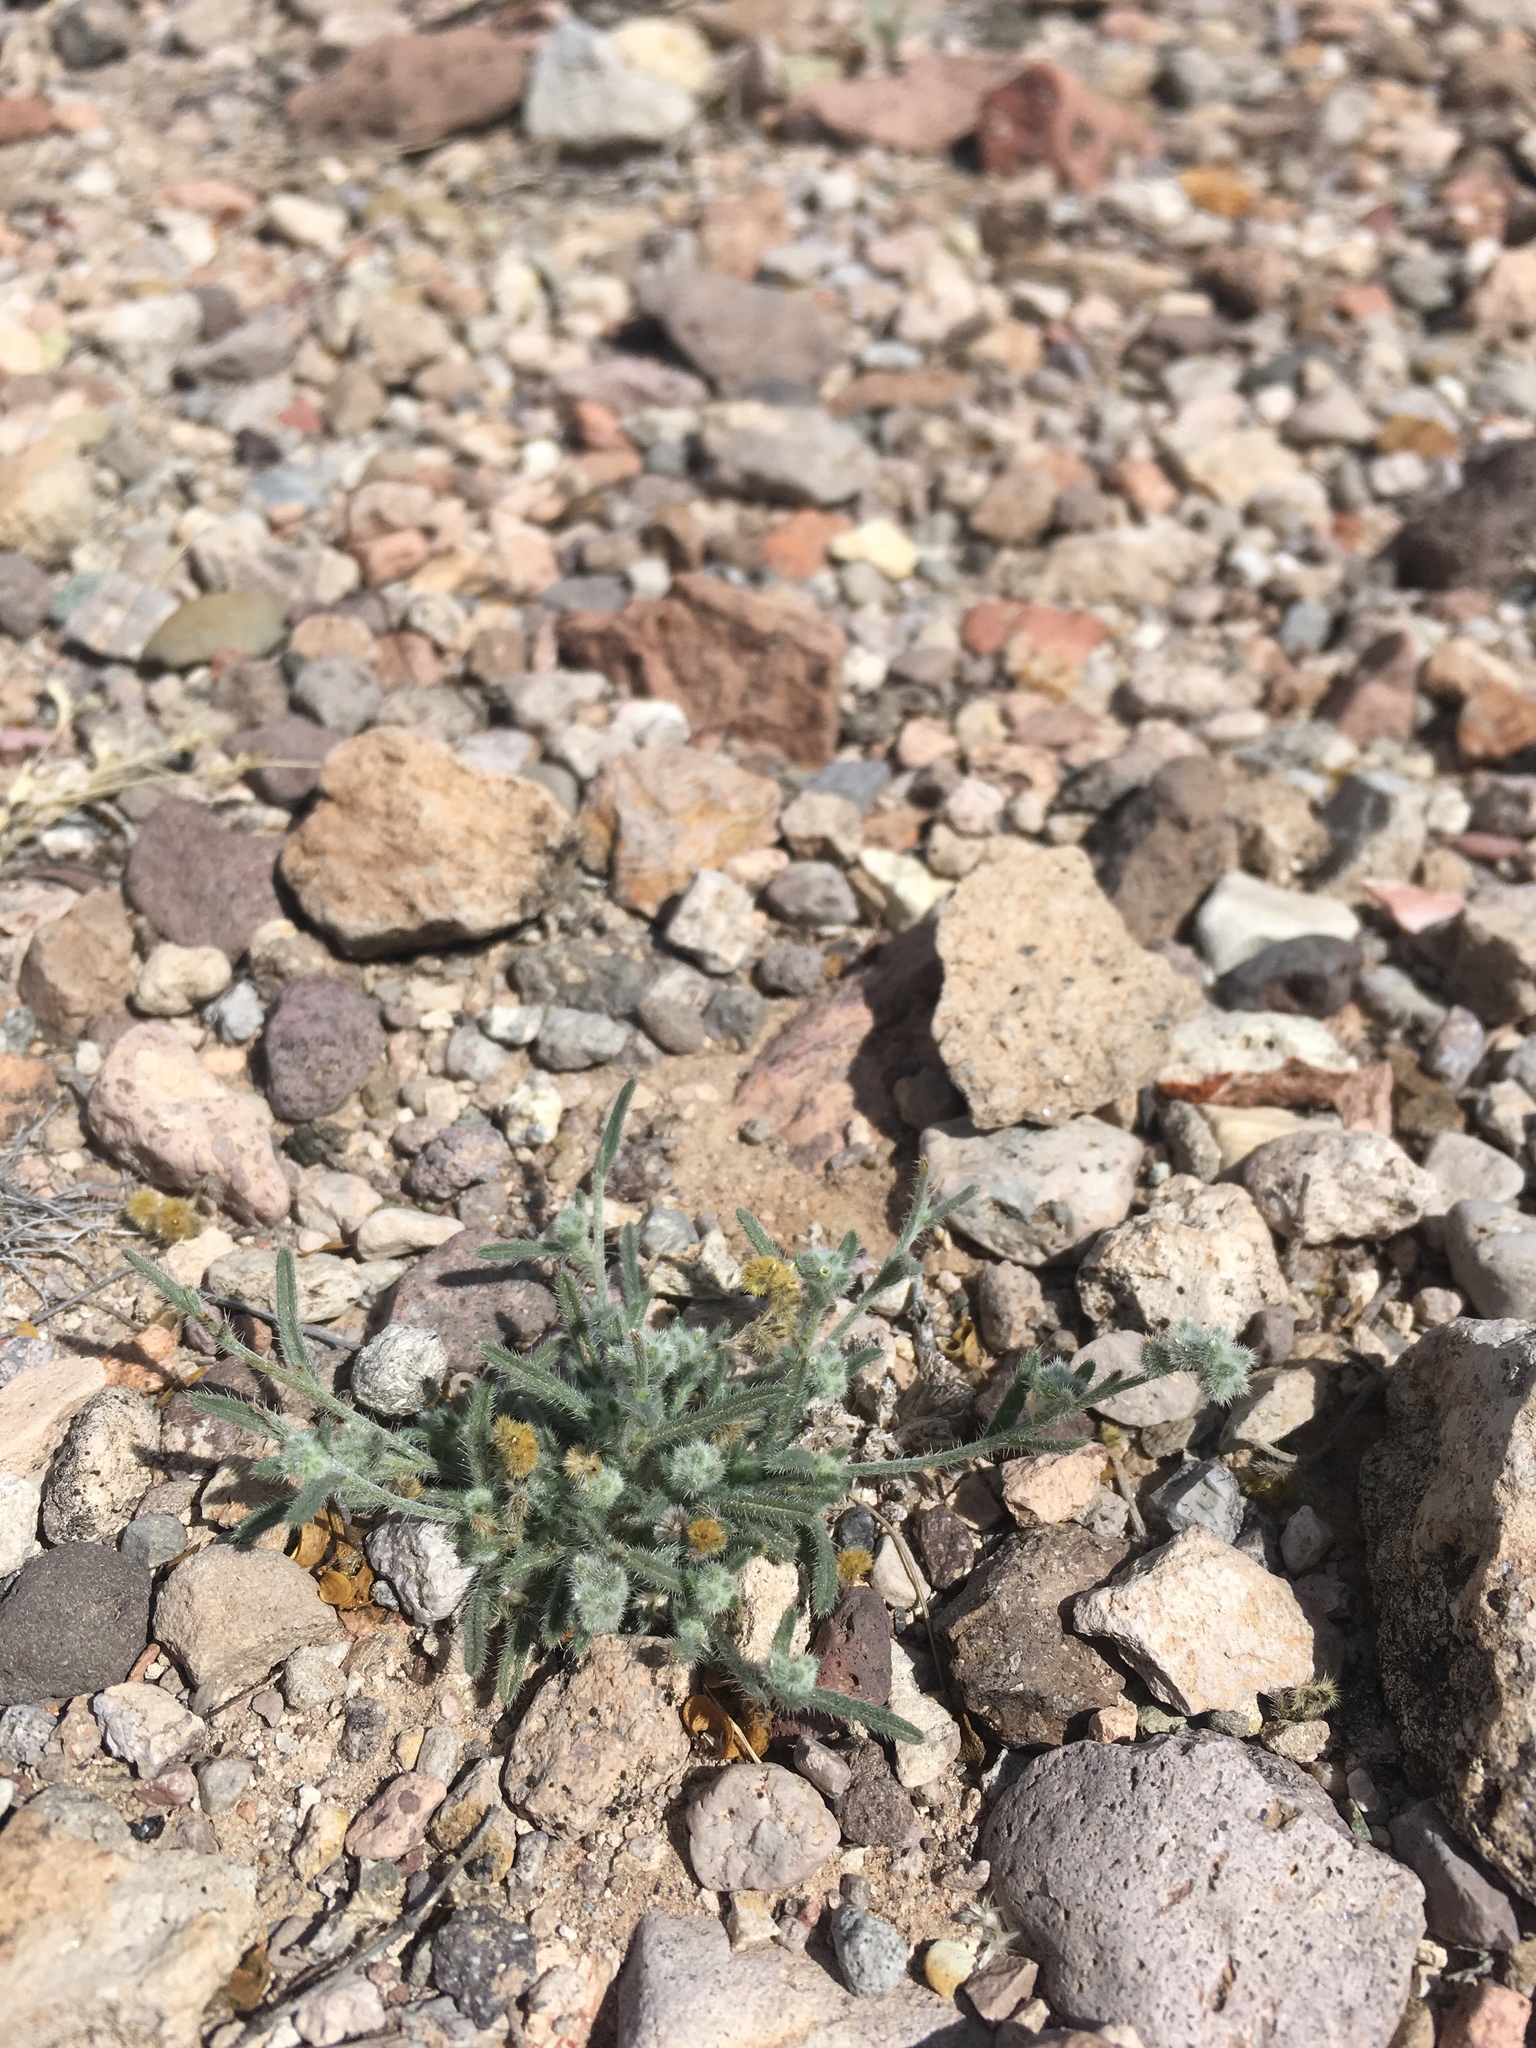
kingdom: Plantae
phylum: Tracheophyta
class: Magnoliopsida
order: Boraginales
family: Boraginaceae
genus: Johnstonella
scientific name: Johnstonella pusilla
